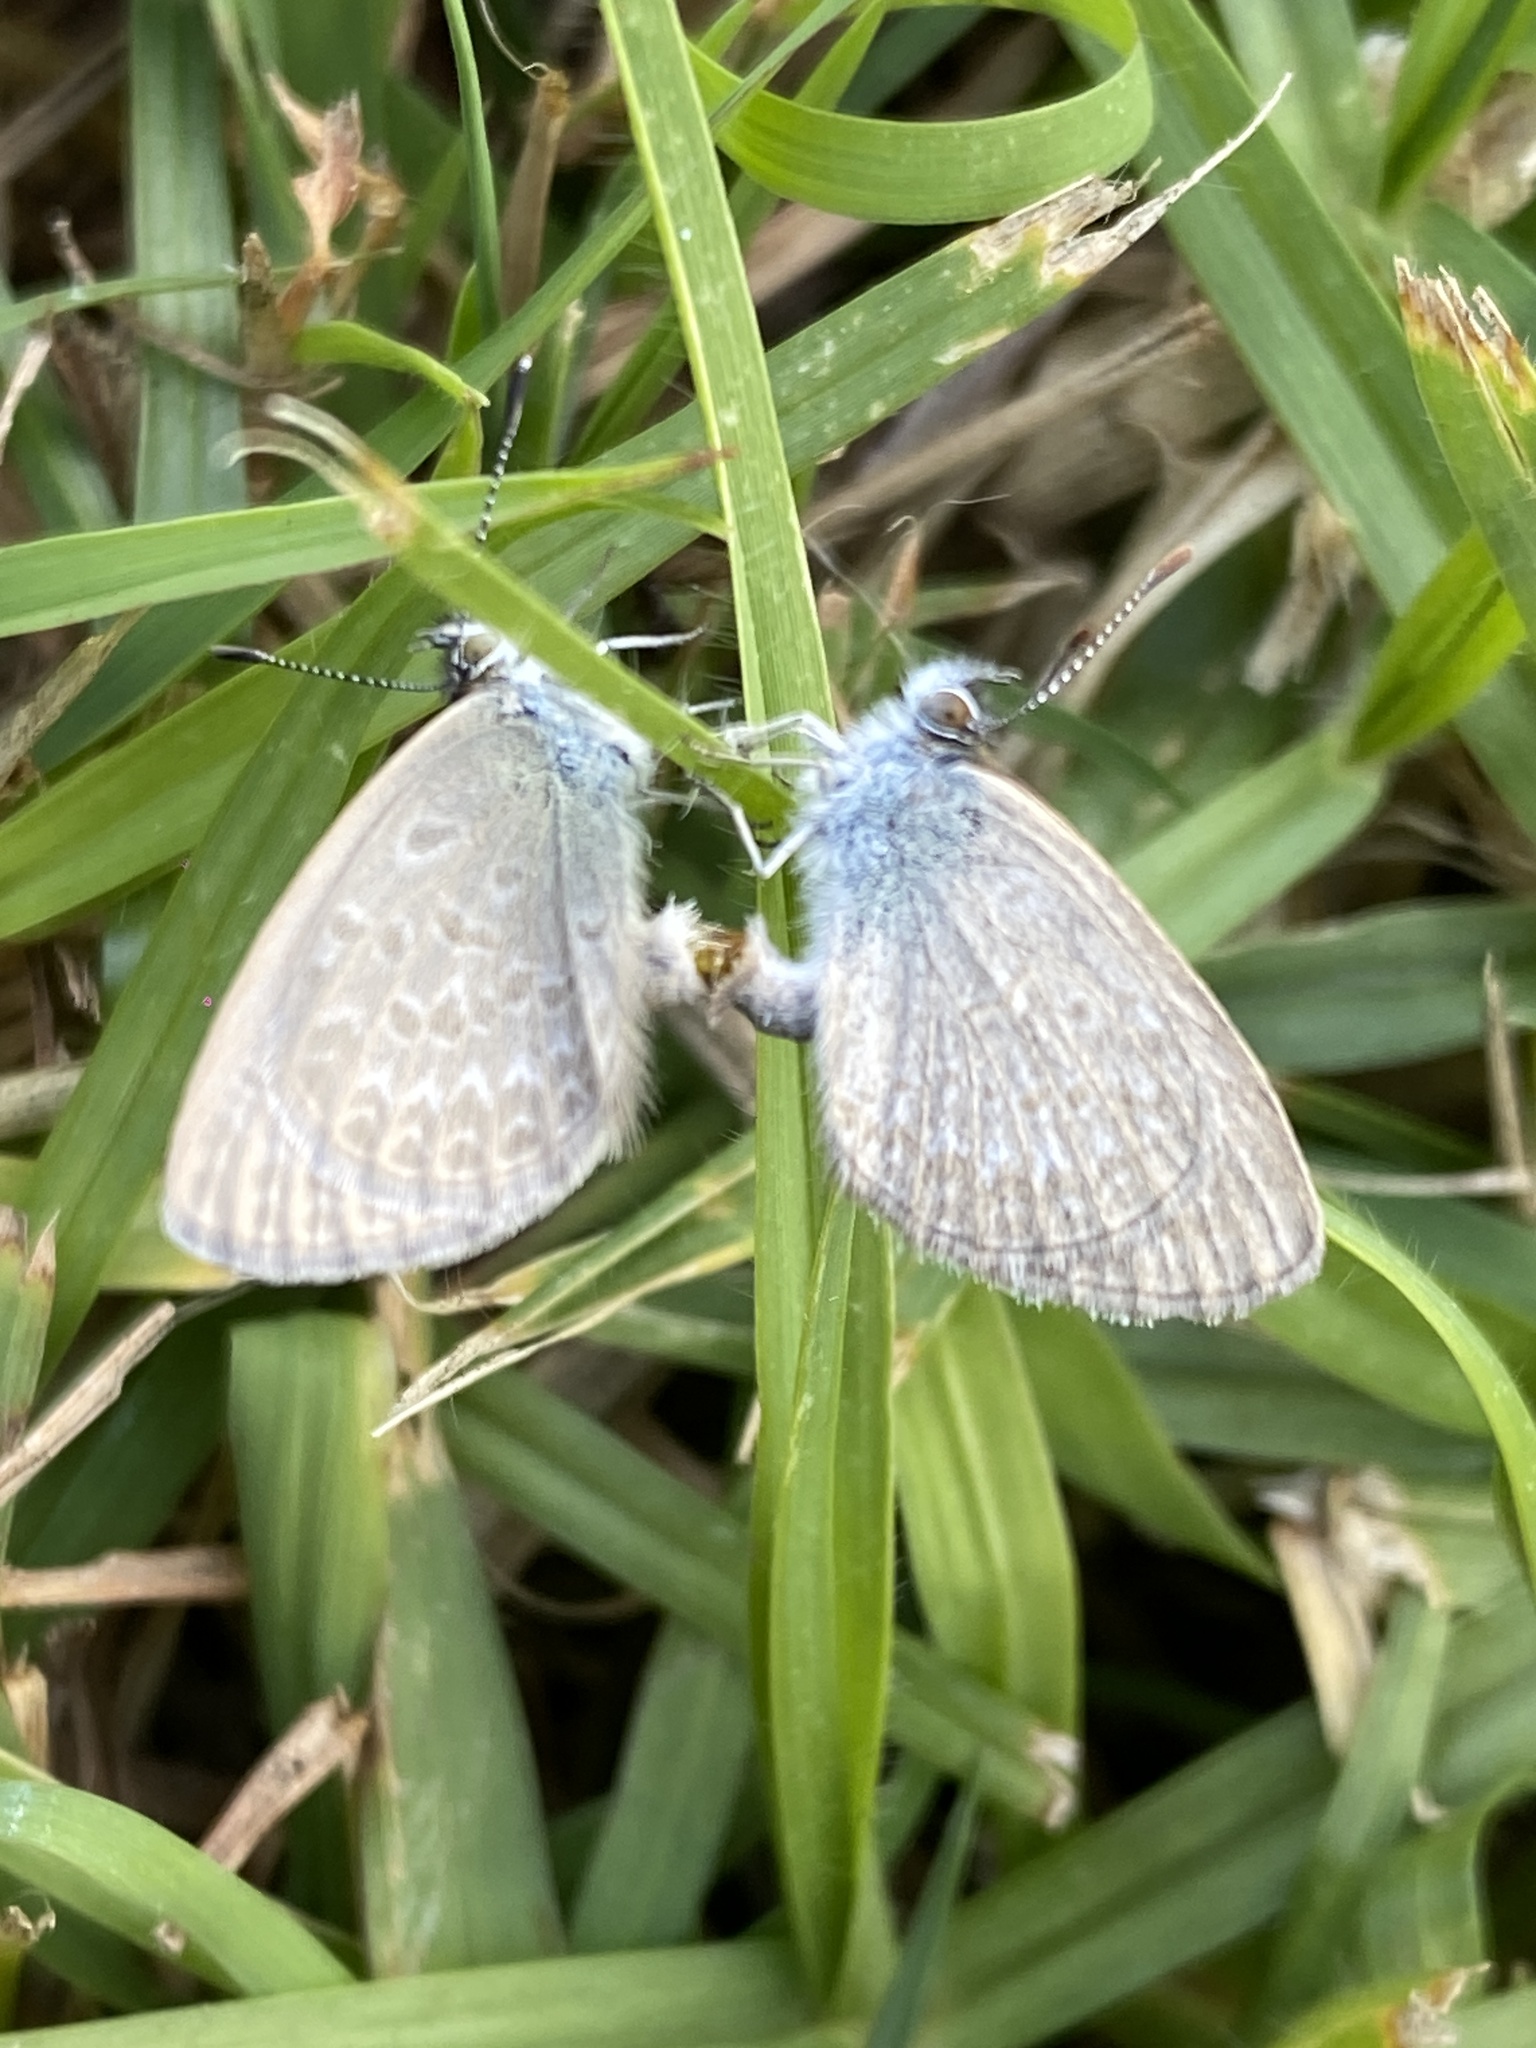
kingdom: Animalia
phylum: Arthropoda
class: Insecta
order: Lepidoptera
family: Lycaenidae
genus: Zizina
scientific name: Zizina otis
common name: Lesser grass blue
